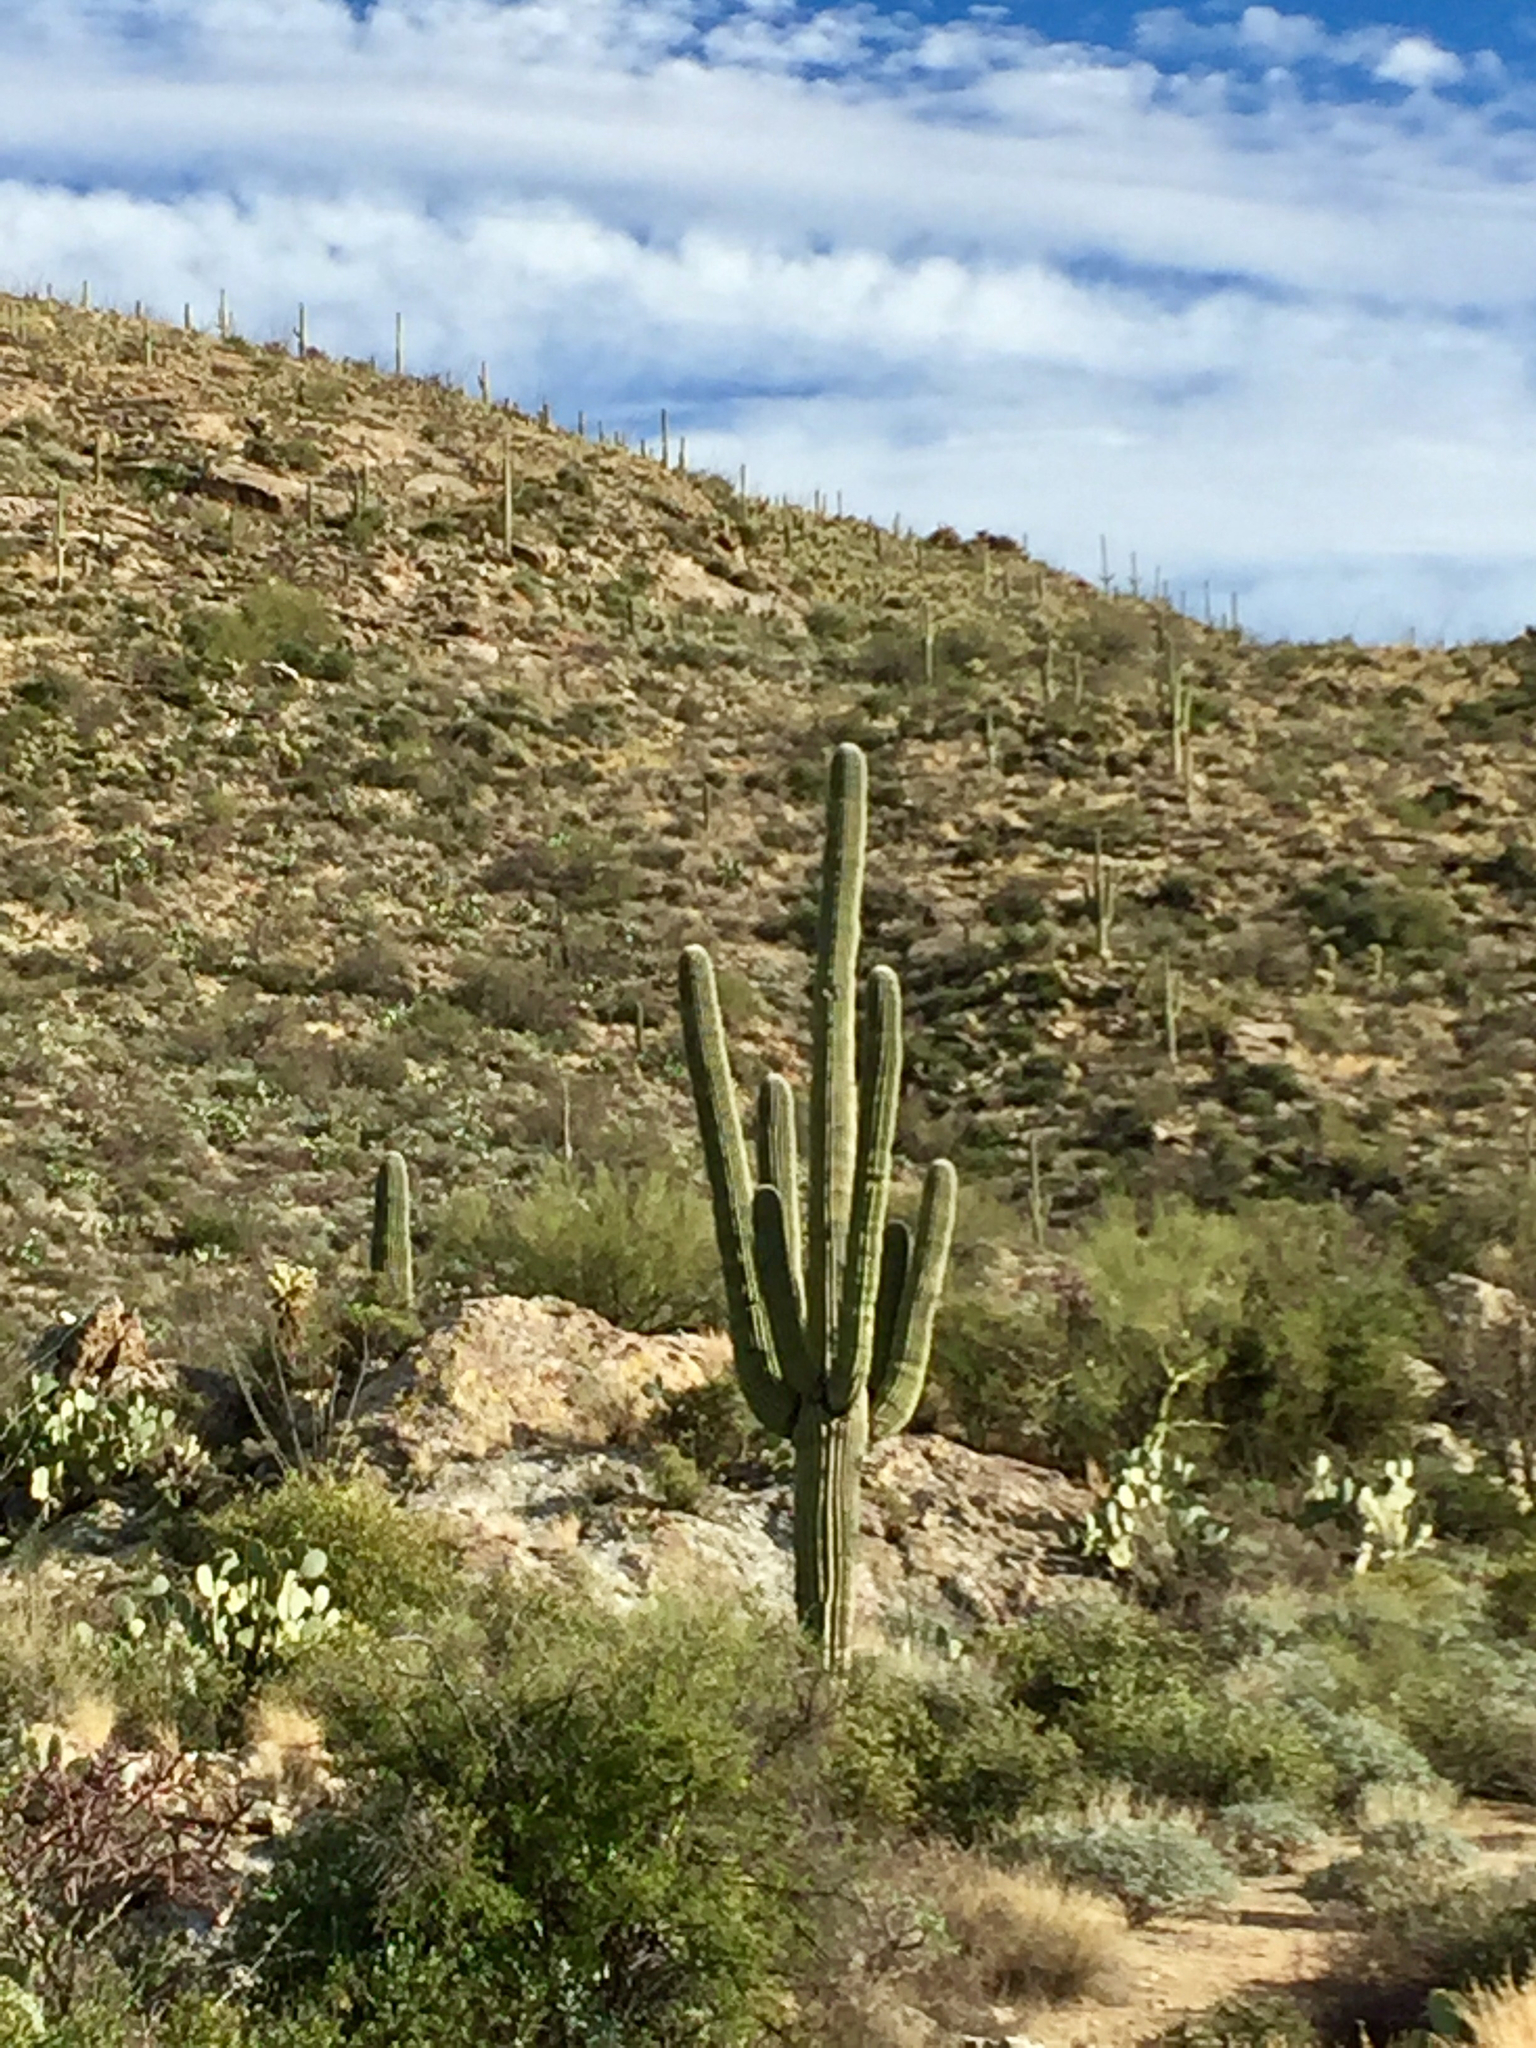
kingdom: Plantae
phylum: Tracheophyta
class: Magnoliopsida
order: Caryophyllales
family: Cactaceae
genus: Carnegiea
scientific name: Carnegiea gigantea
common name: Saguaro
